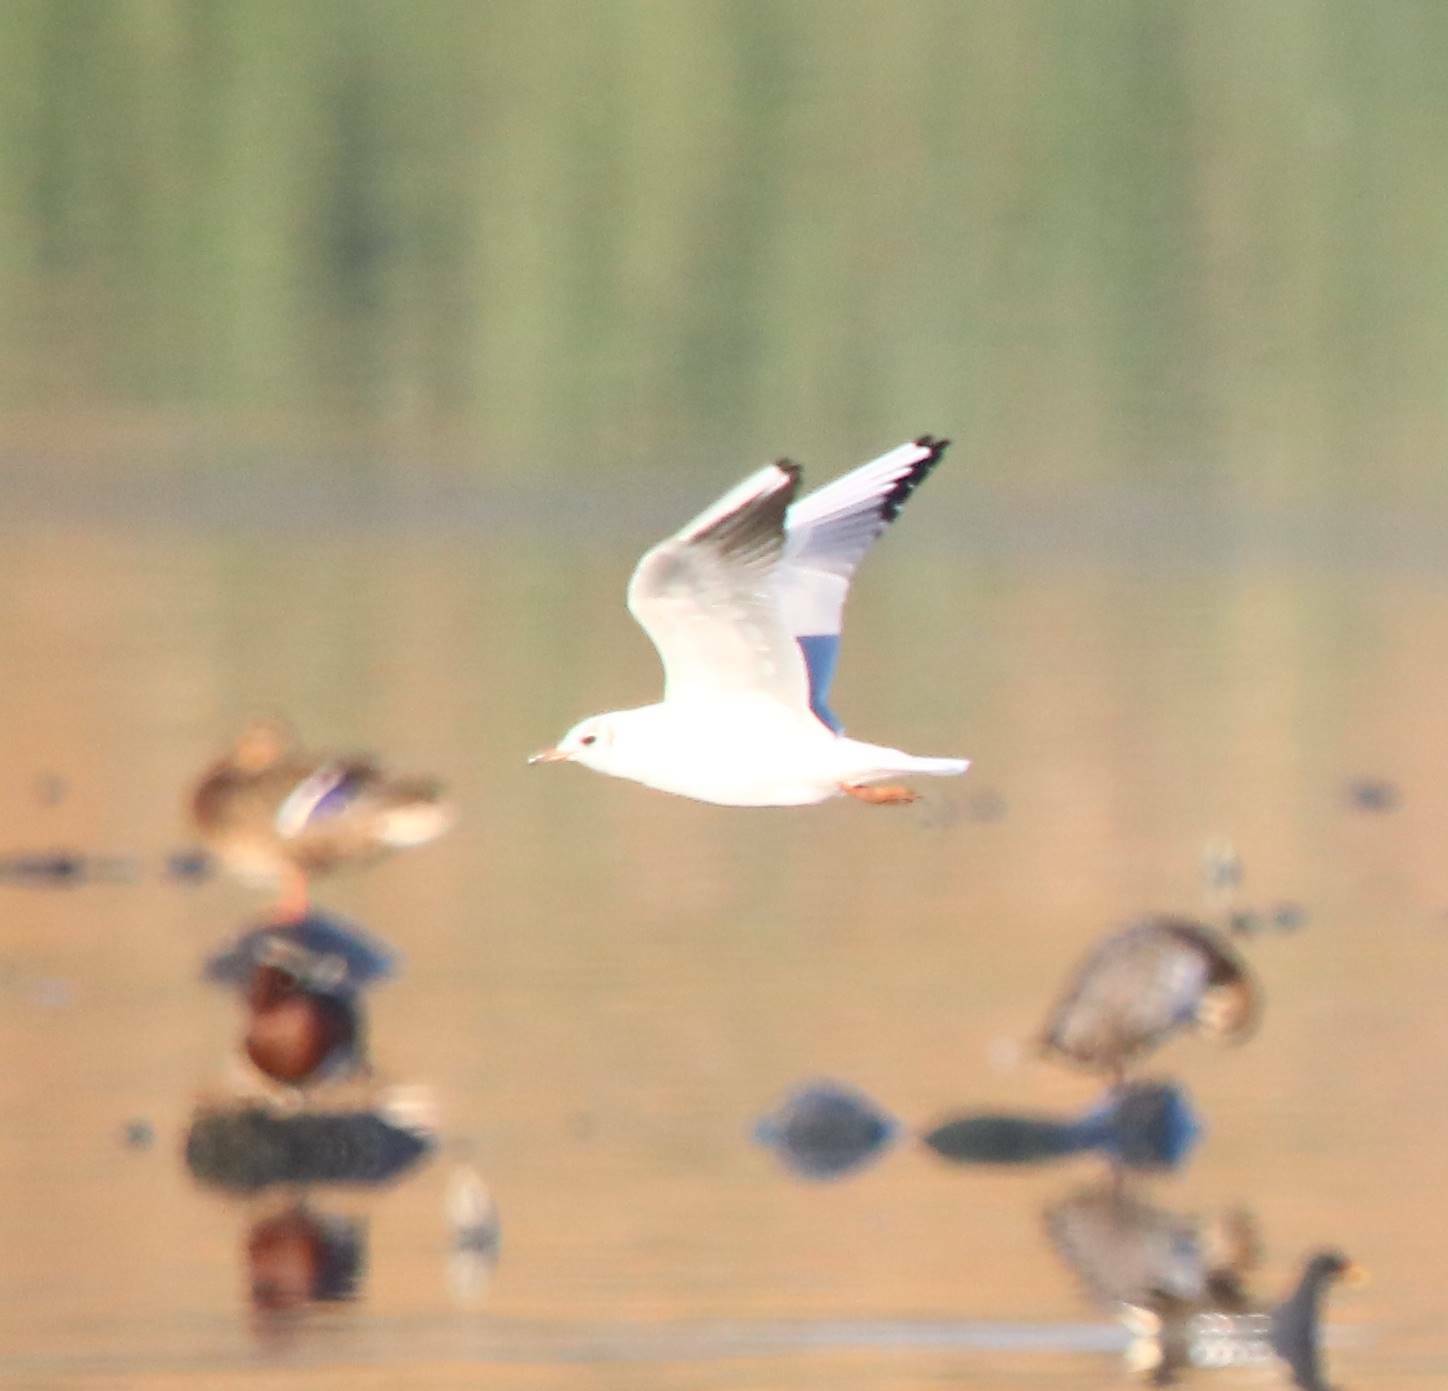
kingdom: Animalia
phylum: Chordata
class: Aves
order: Charadriiformes
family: Laridae
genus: Chroicocephalus
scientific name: Chroicocephalus ridibundus
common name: Black-headed gull
